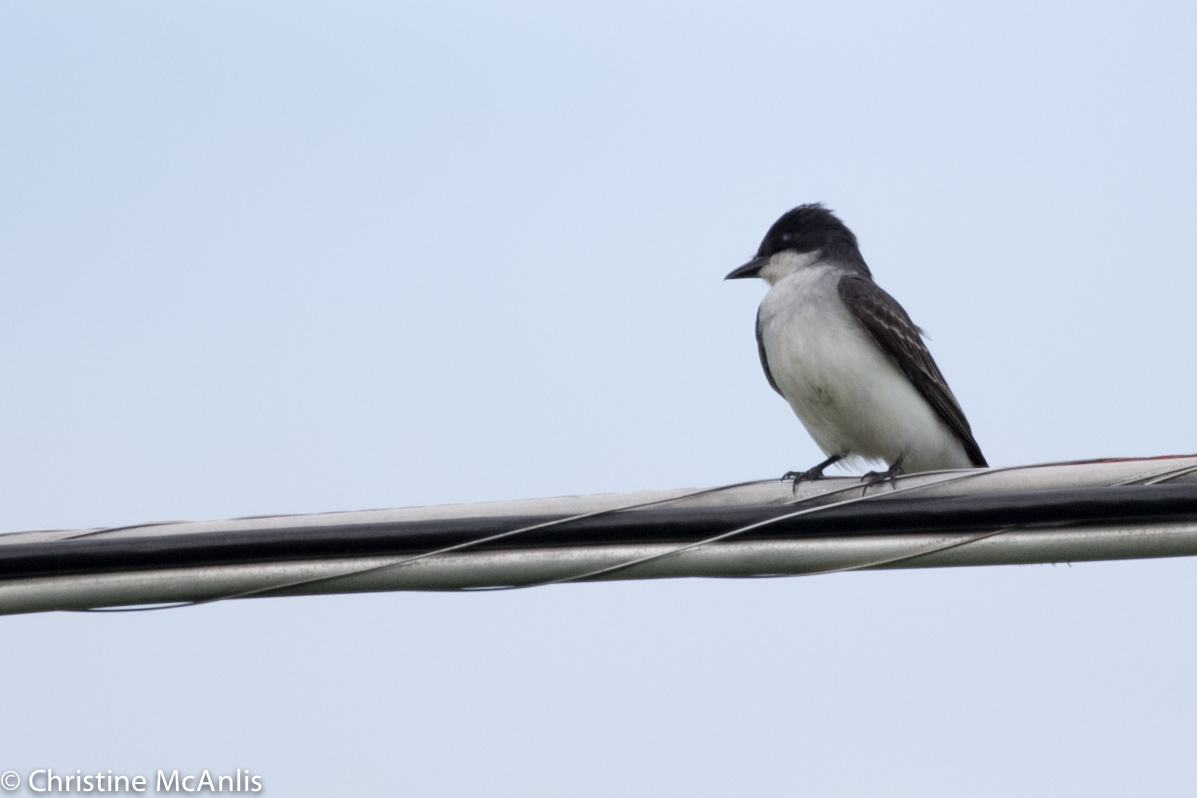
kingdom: Animalia
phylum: Chordata
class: Aves
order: Passeriformes
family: Tyrannidae
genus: Tyrannus
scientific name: Tyrannus tyrannus
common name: Eastern kingbird
